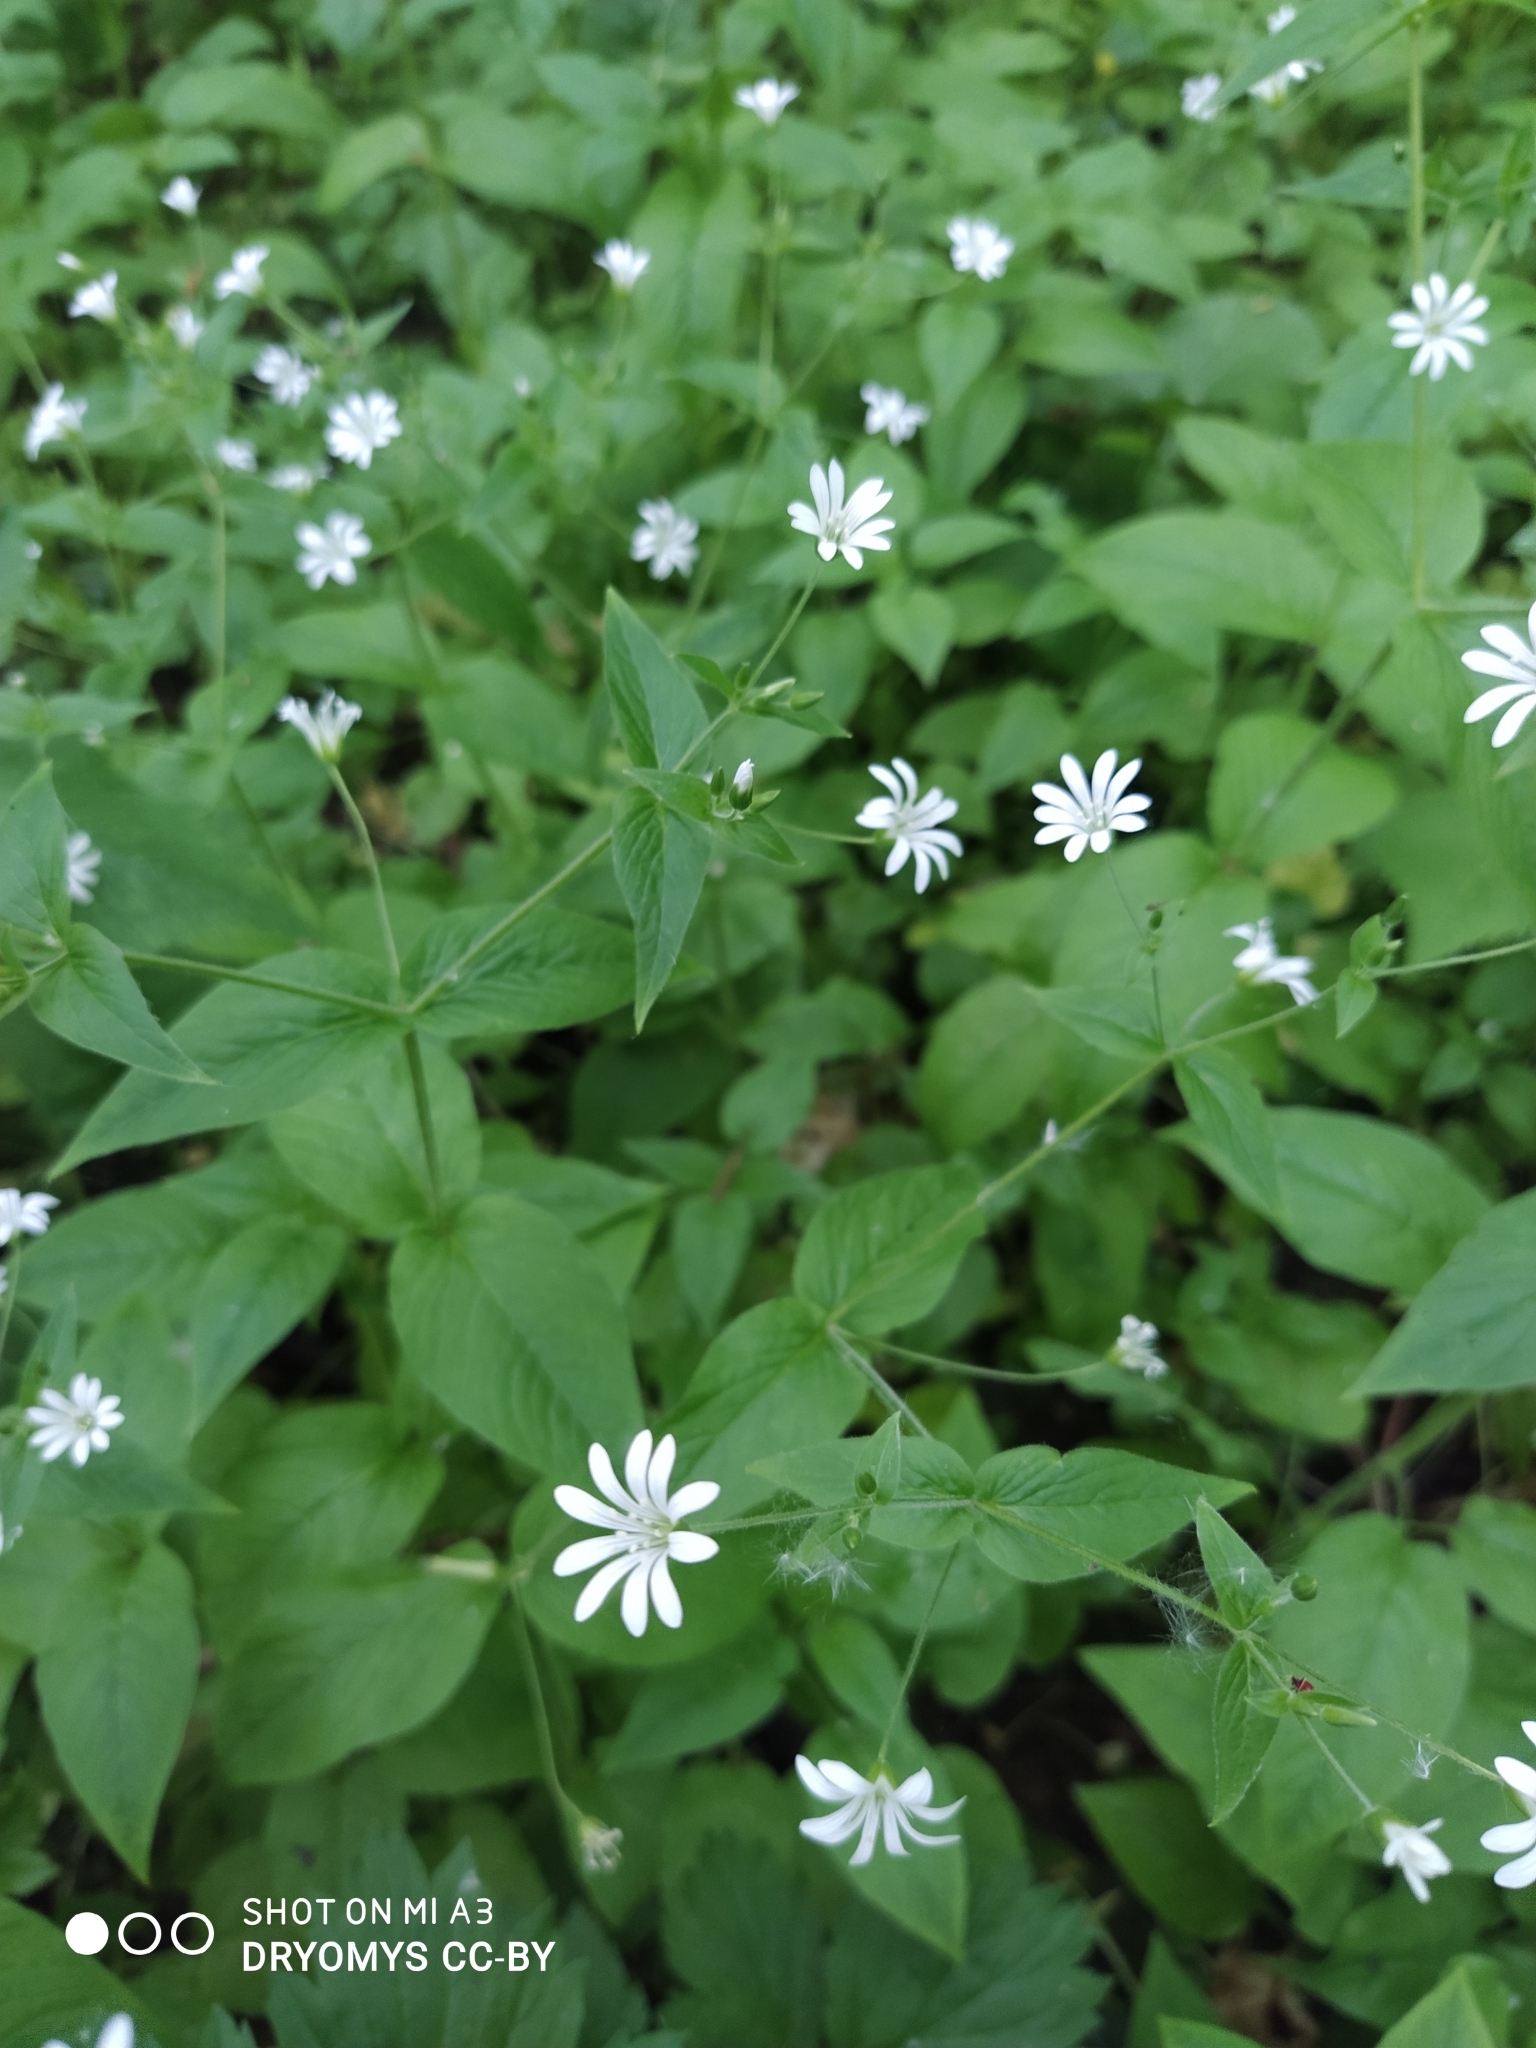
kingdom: Plantae
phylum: Tracheophyta
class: Magnoliopsida
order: Caryophyllales
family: Caryophyllaceae
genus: Stellaria
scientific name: Stellaria nemorum
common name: Wood stitchwort
